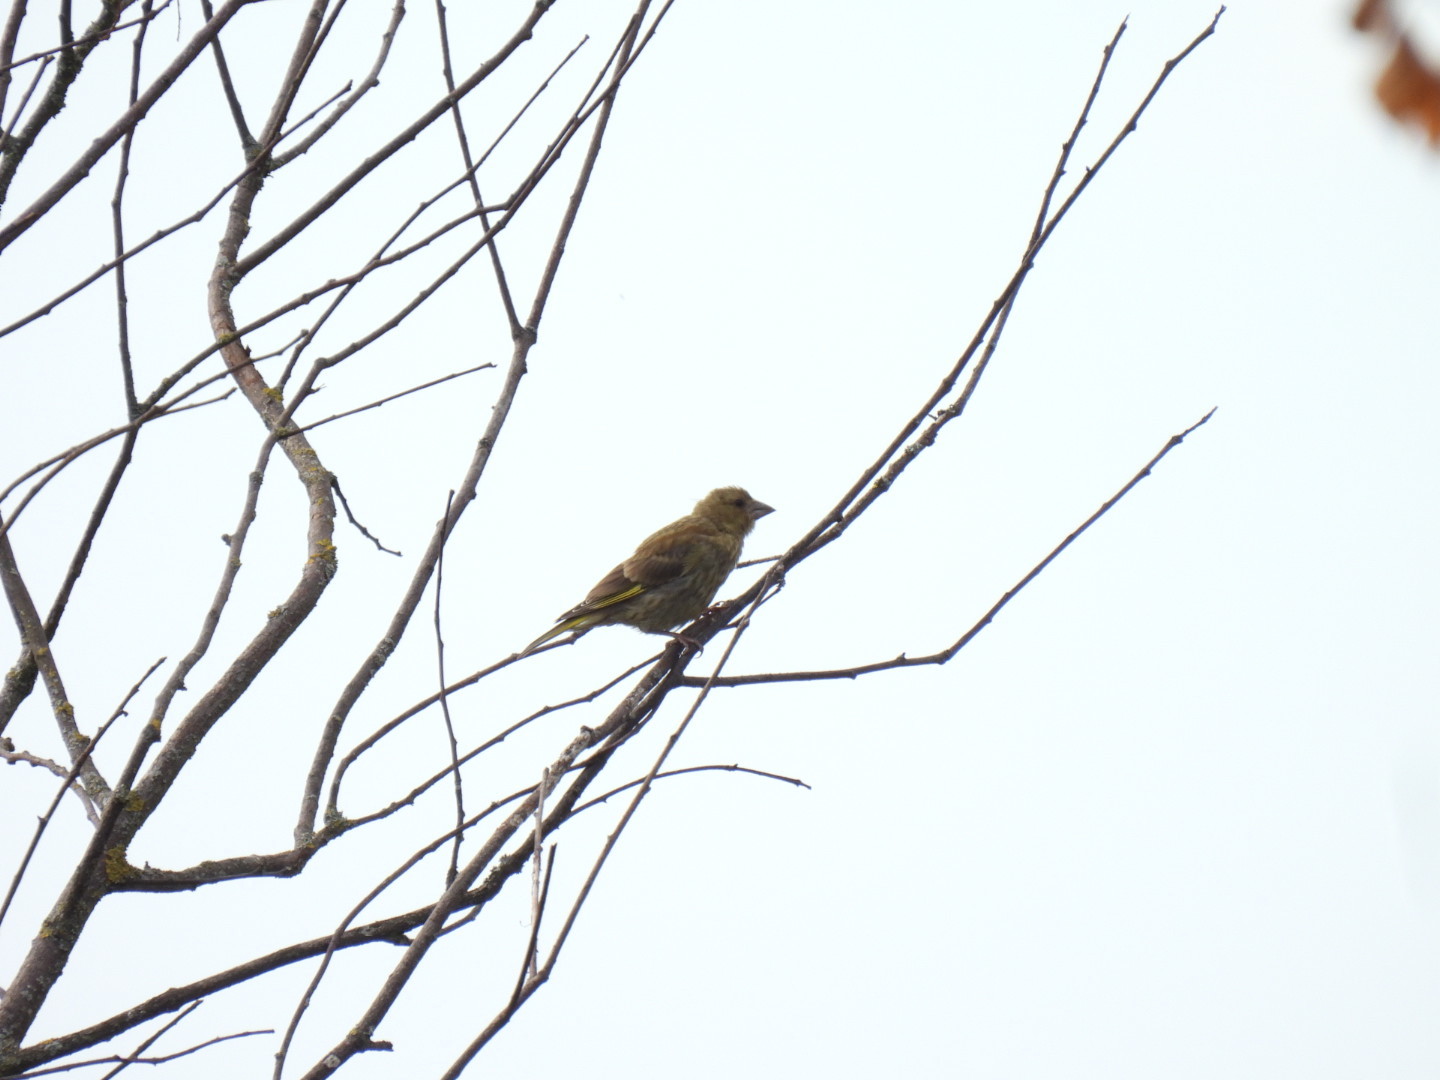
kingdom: Plantae
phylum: Tracheophyta
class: Liliopsida
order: Poales
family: Poaceae
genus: Chloris
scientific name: Chloris chloris
